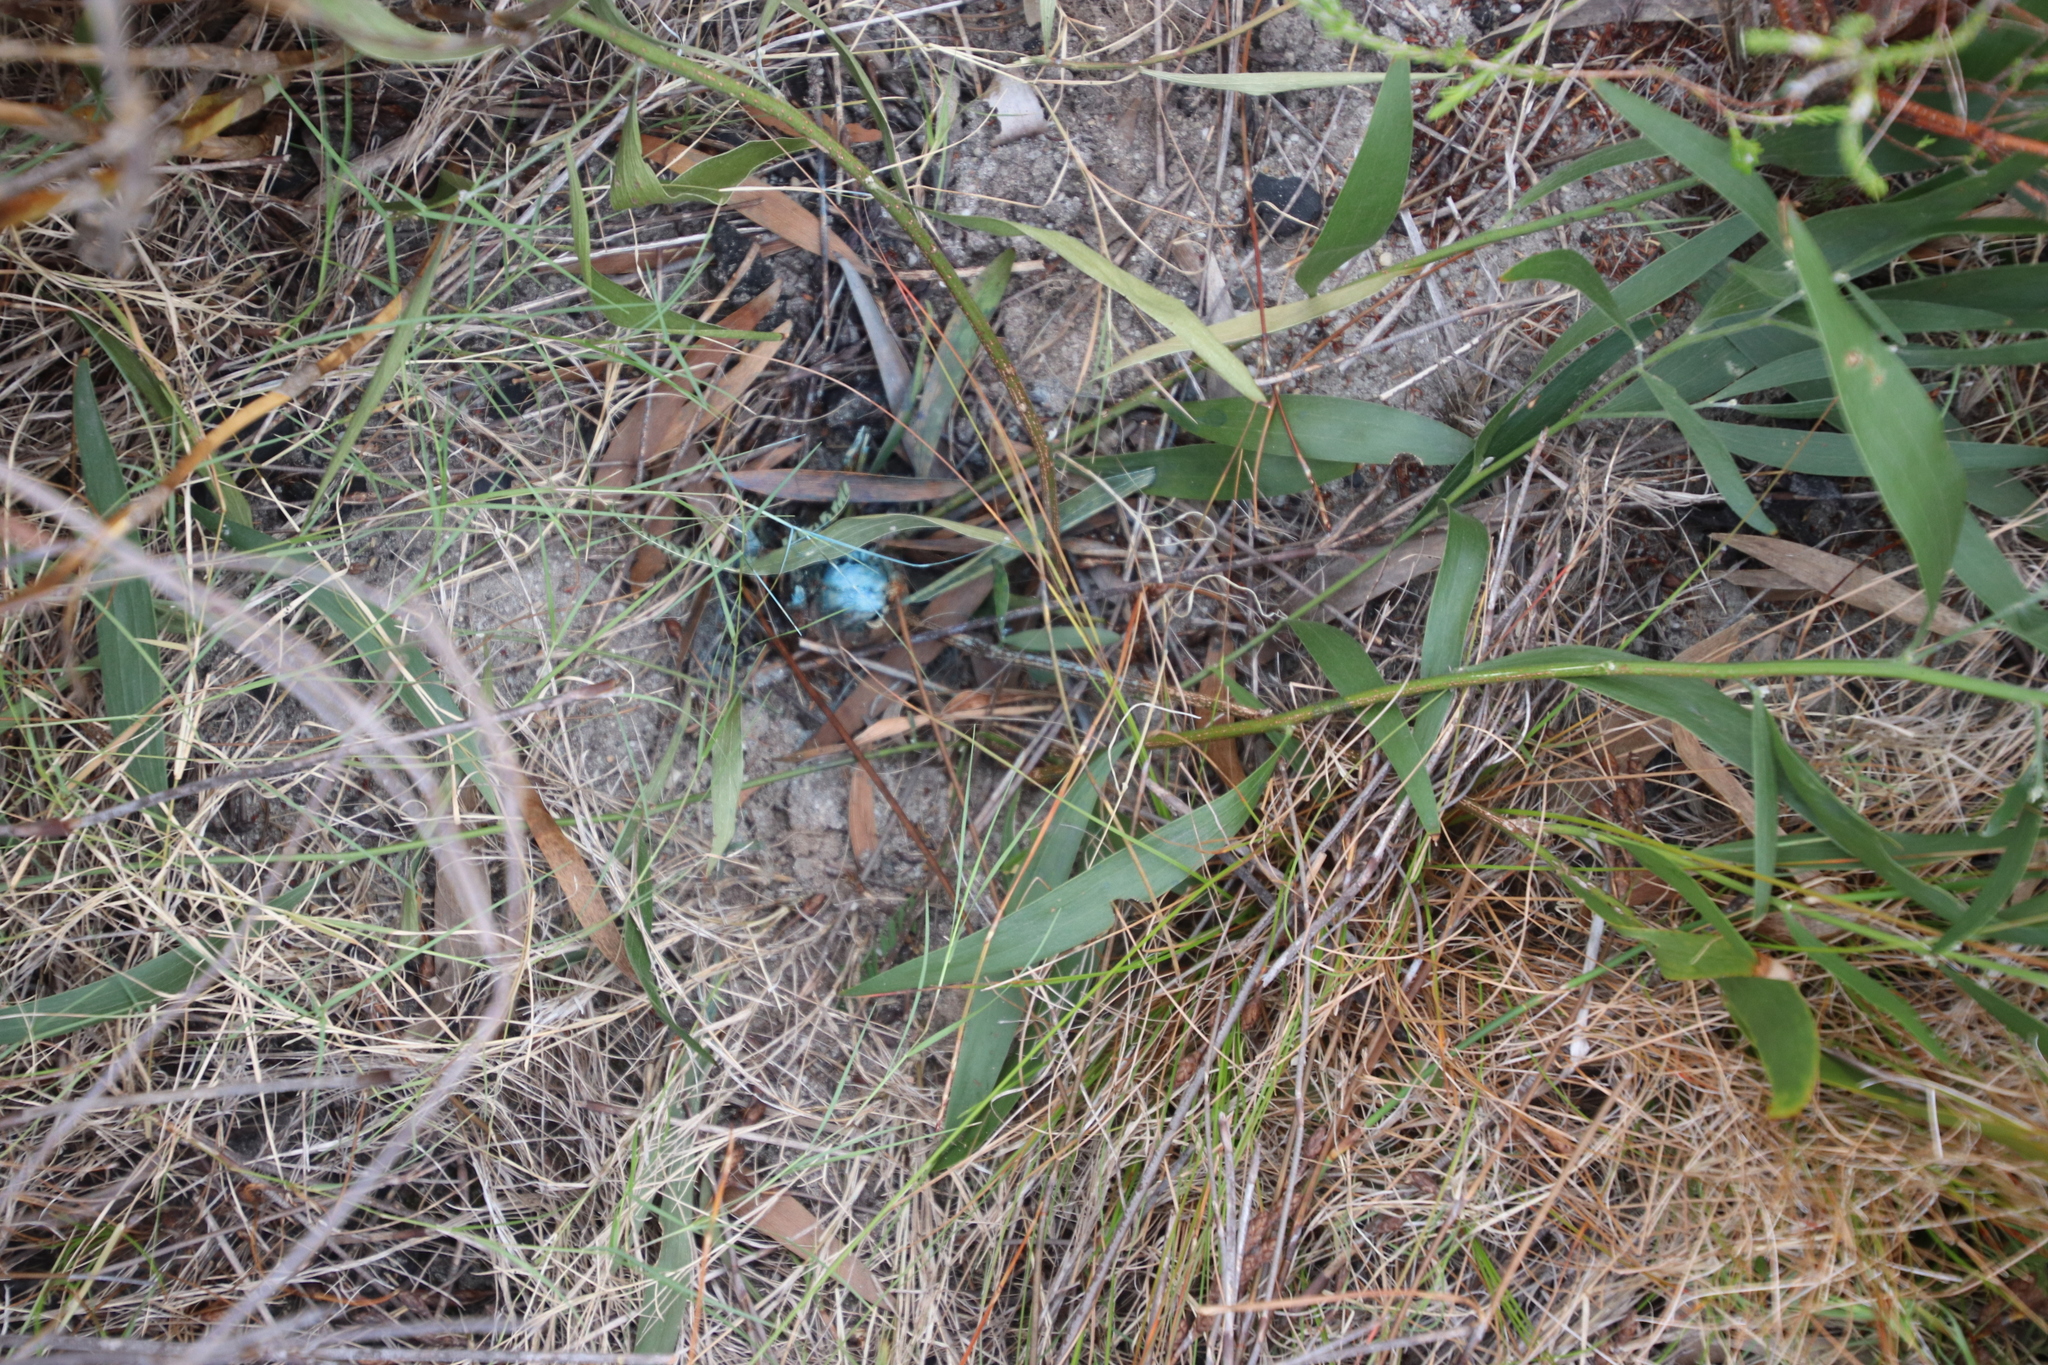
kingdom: Plantae
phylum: Tracheophyta
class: Magnoliopsida
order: Fabales
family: Fabaceae
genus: Acacia
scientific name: Acacia melanoxylon
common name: Blackwood
